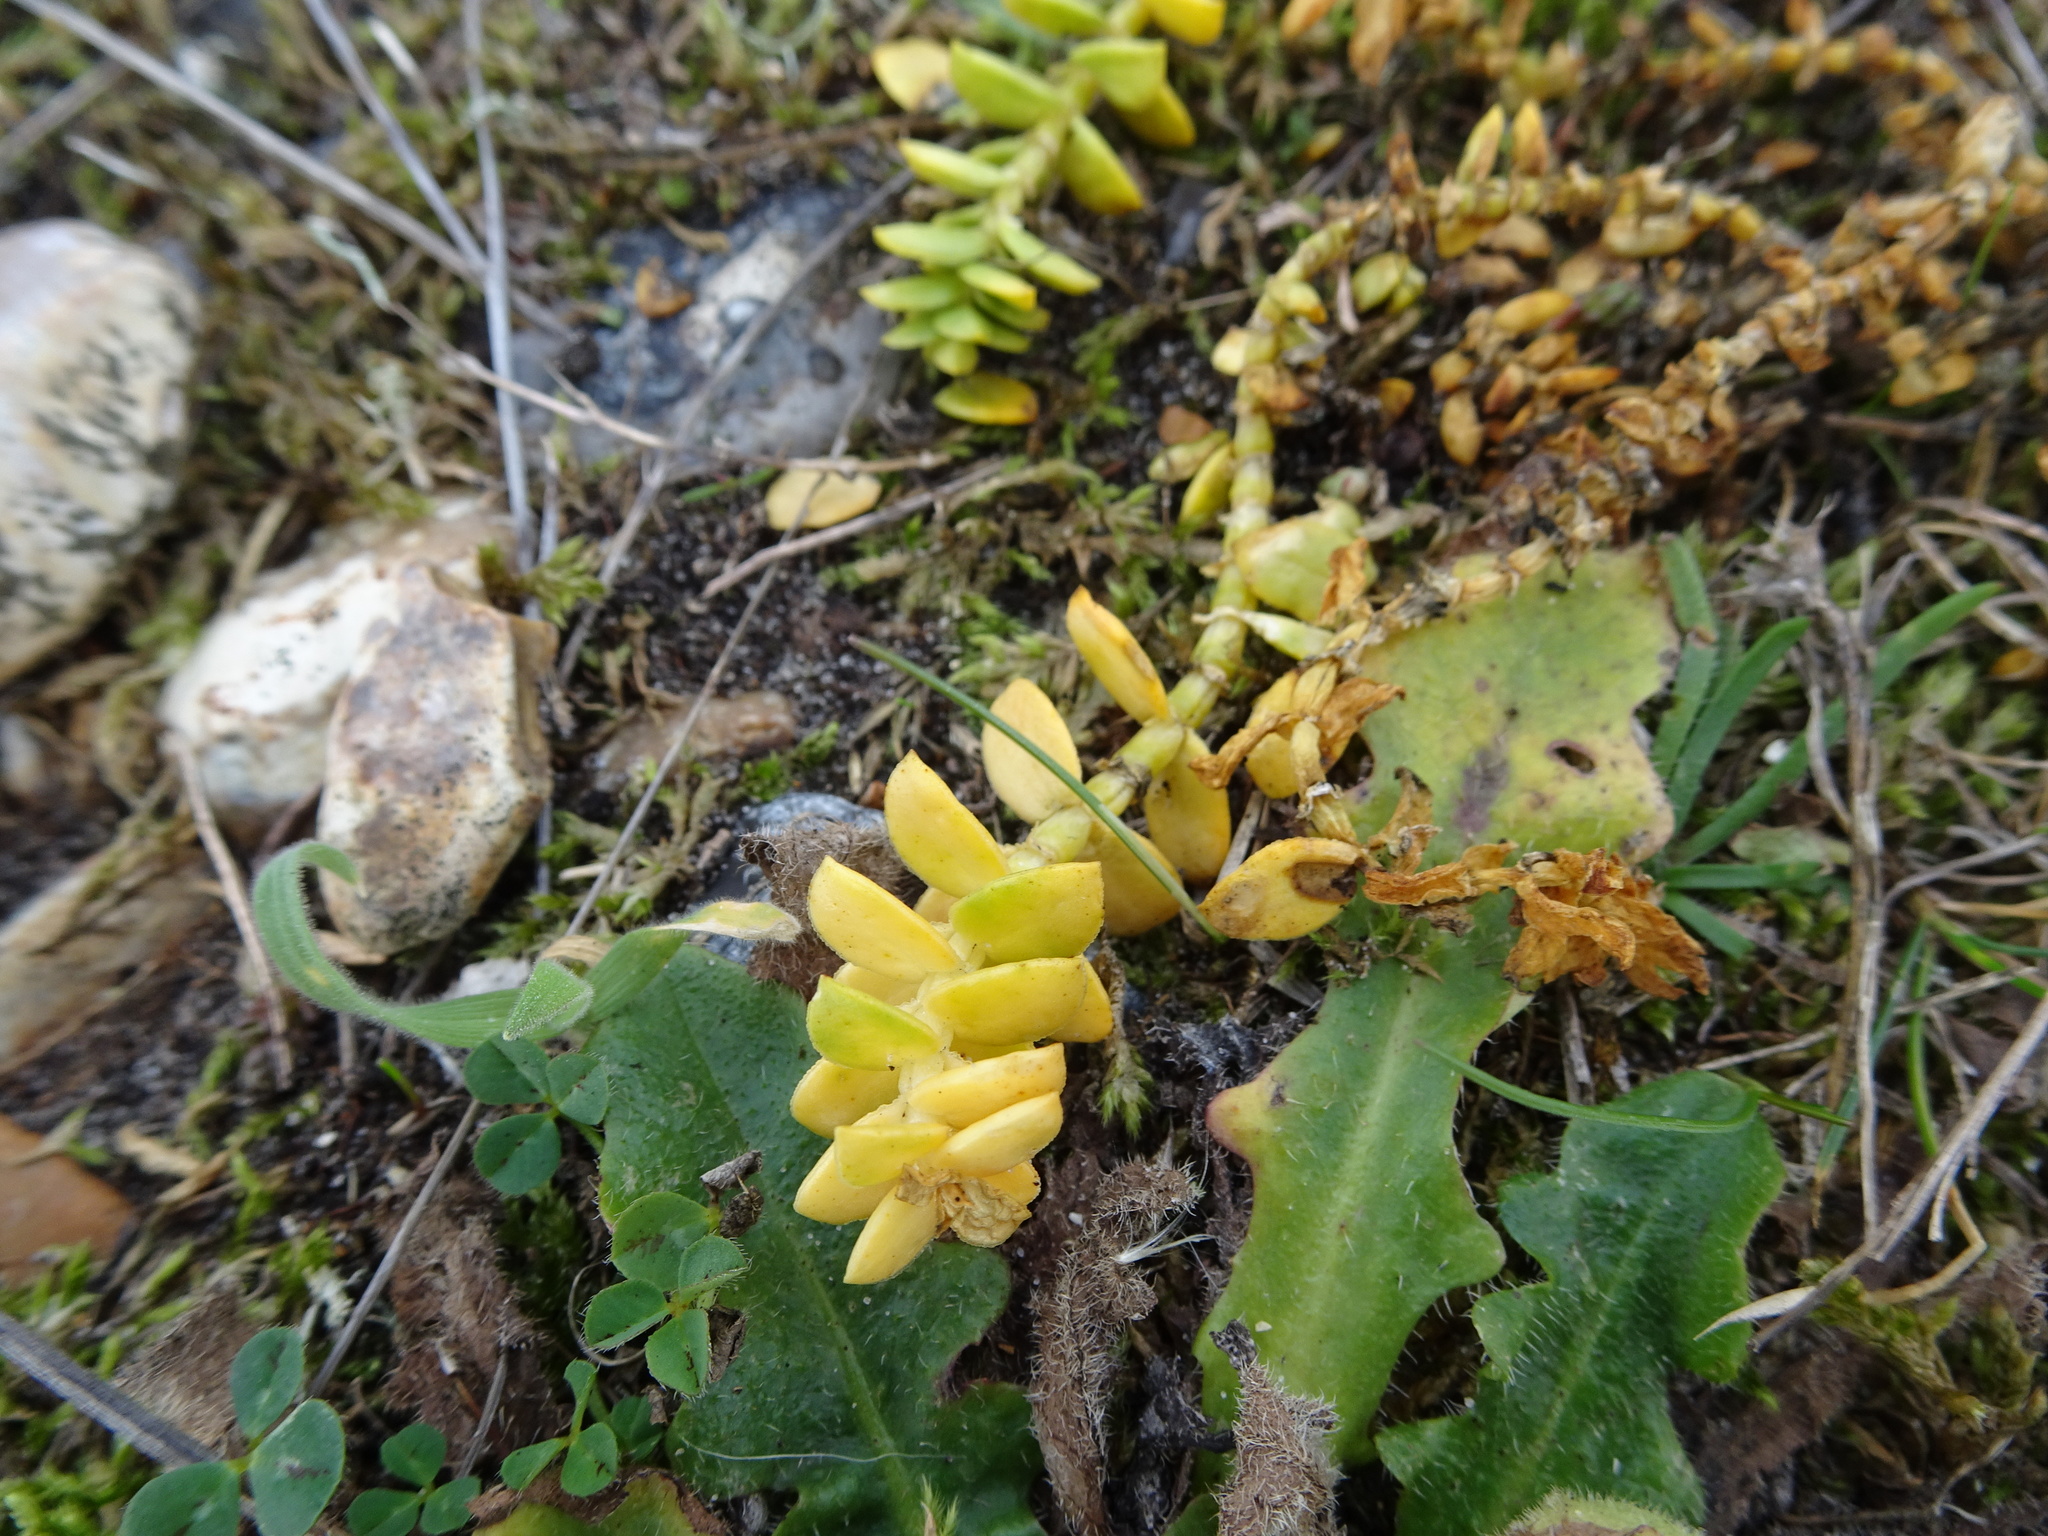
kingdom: Plantae
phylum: Tracheophyta
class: Magnoliopsida
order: Caryophyllales
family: Caryophyllaceae
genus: Honckenya
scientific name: Honckenya peploides
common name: Sea sandwort
